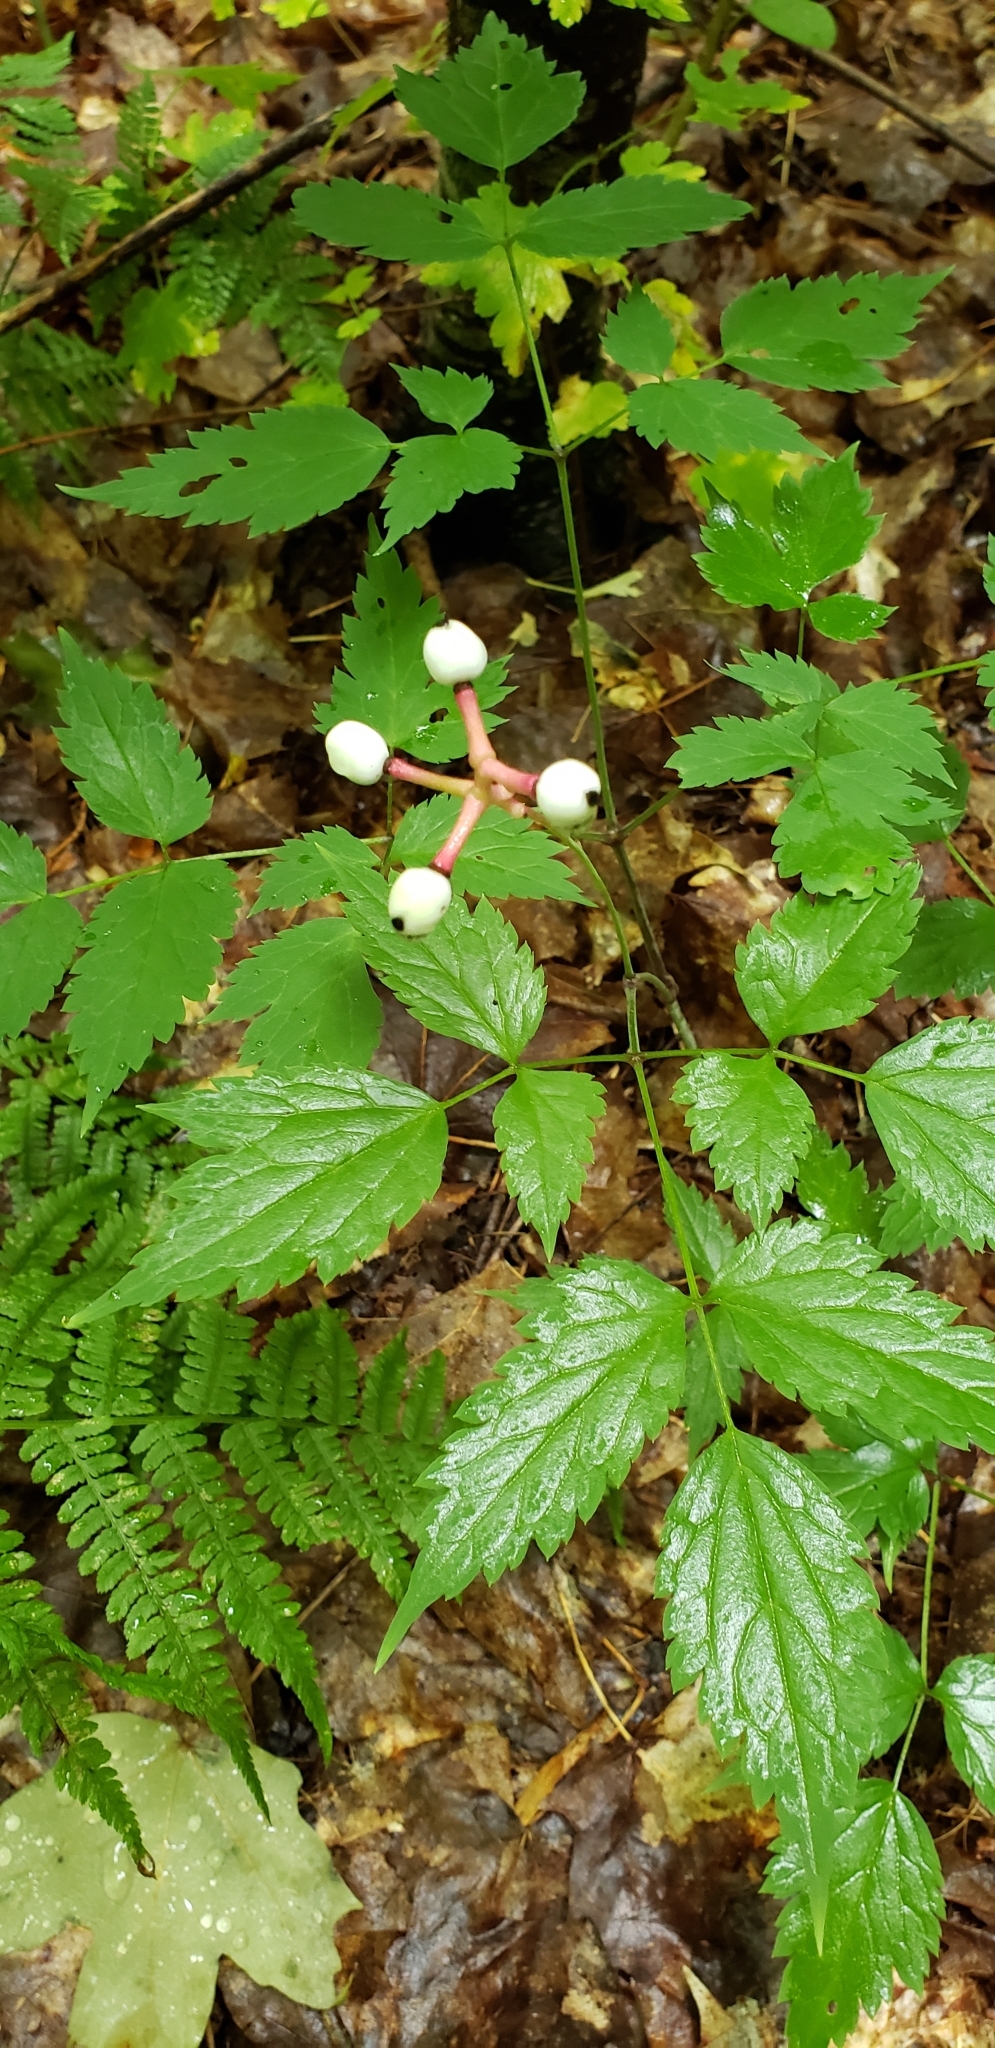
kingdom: Plantae
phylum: Tracheophyta
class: Magnoliopsida
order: Ranunculales
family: Ranunculaceae
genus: Actaea
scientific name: Actaea pachypoda
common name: Doll's-eyes
